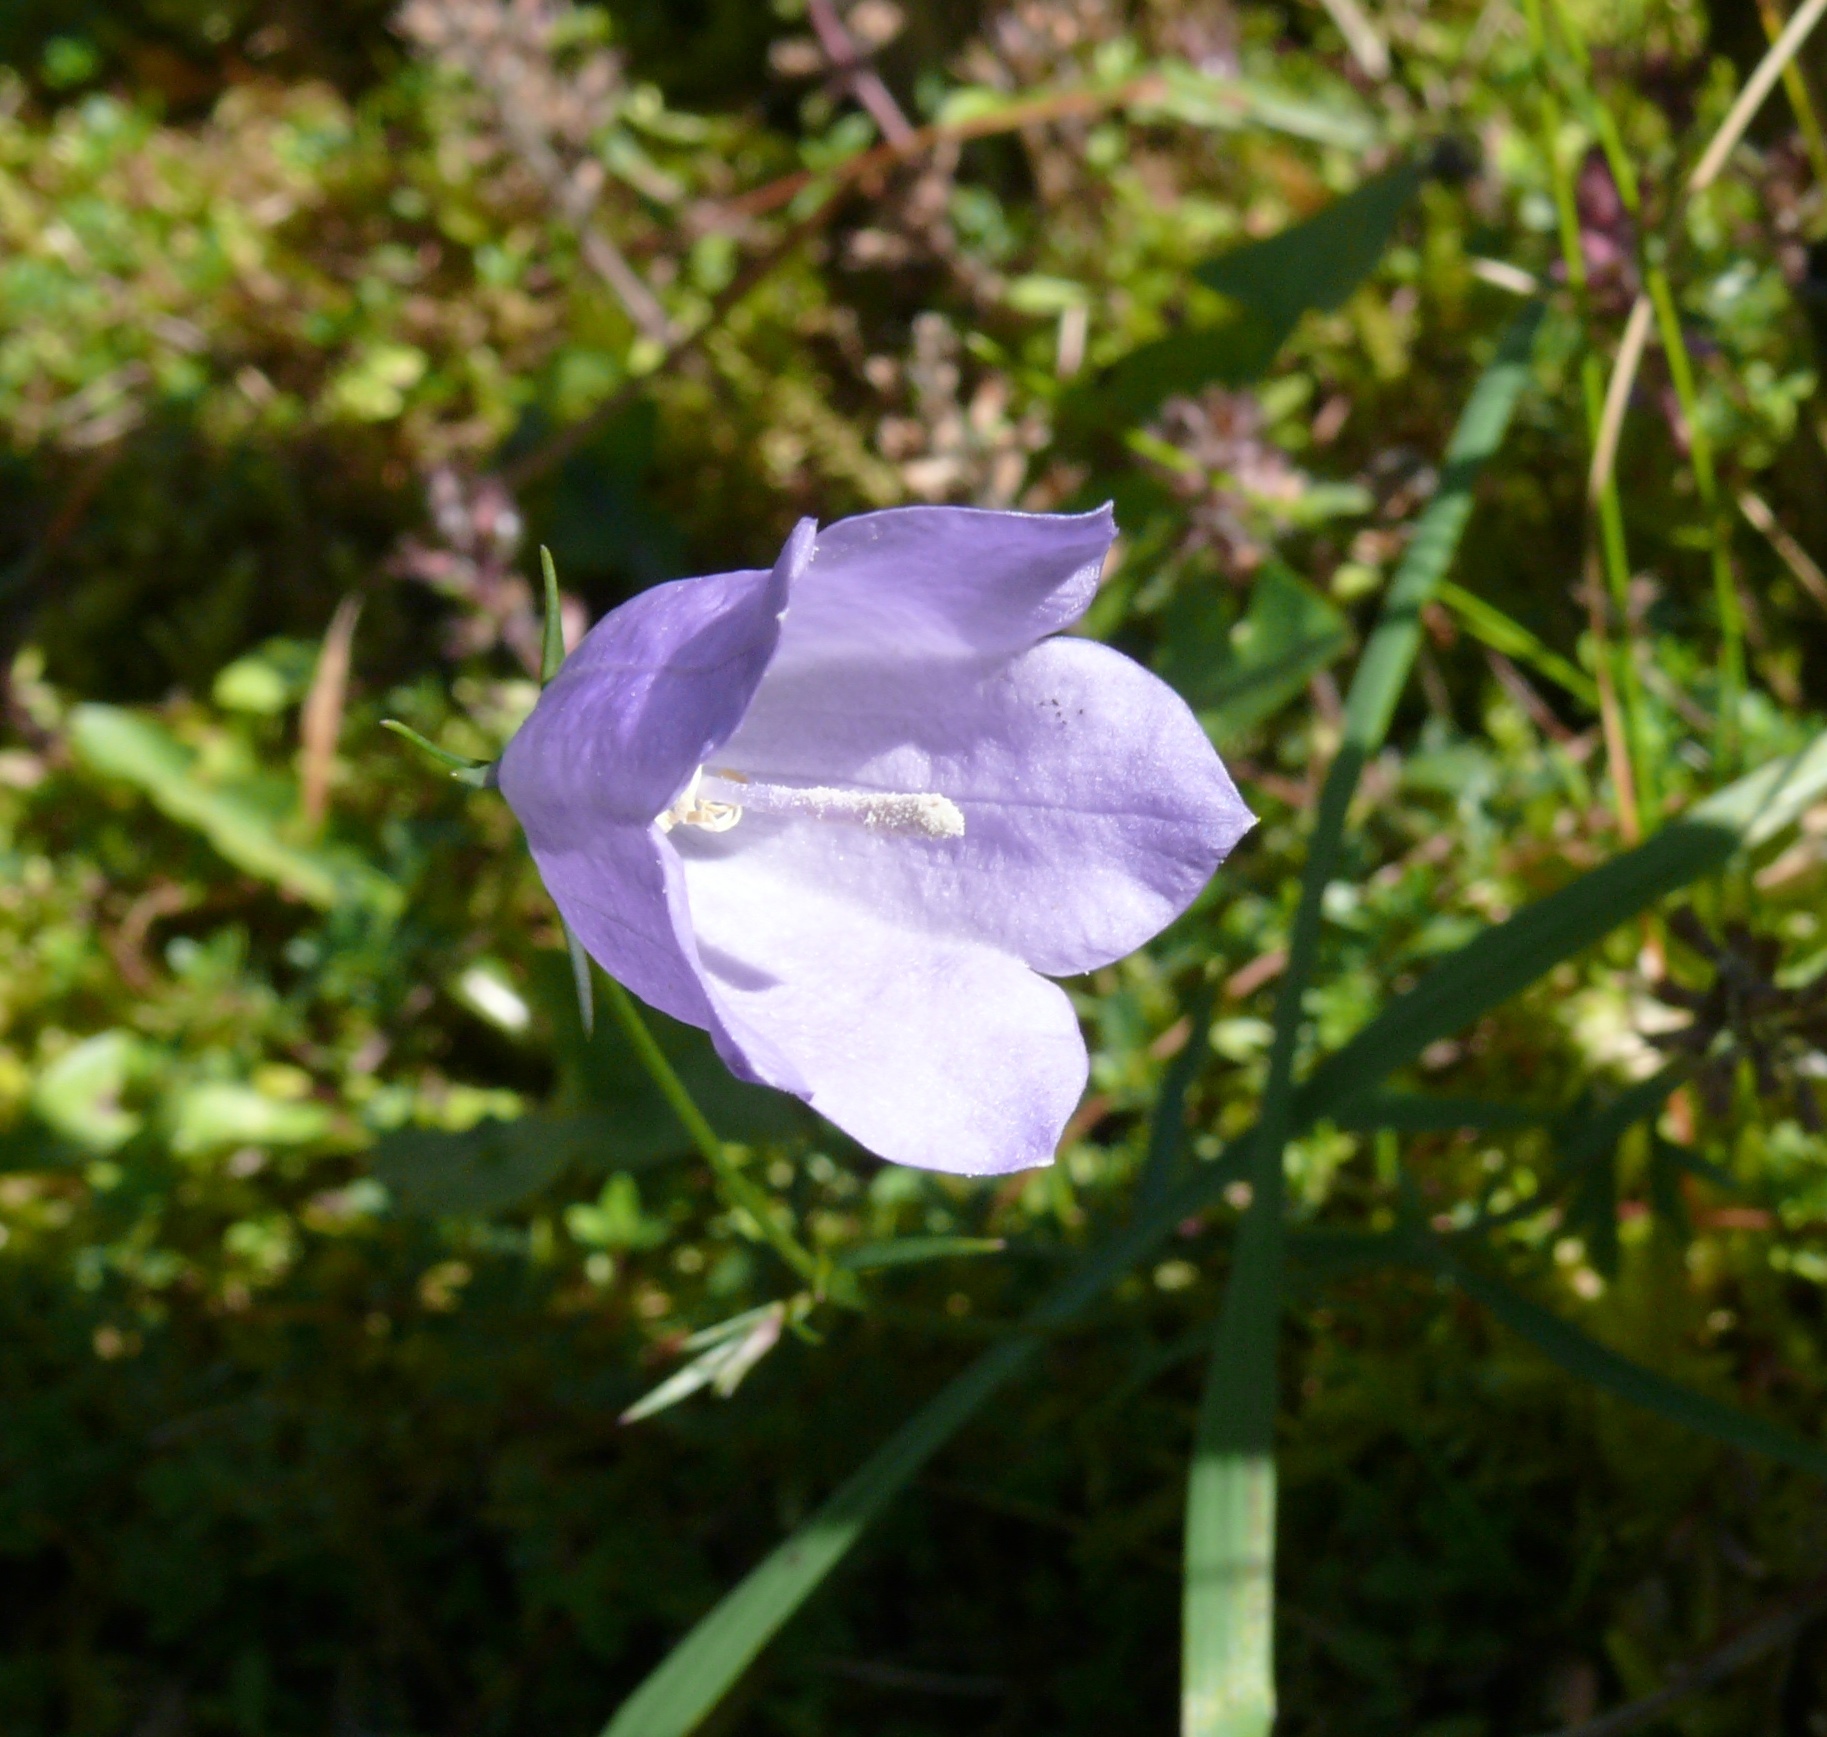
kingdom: Plantae
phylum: Tracheophyta
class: Magnoliopsida
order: Asterales
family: Campanulaceae
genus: Campanula
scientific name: Campanula rotundifolia
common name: Harebell
